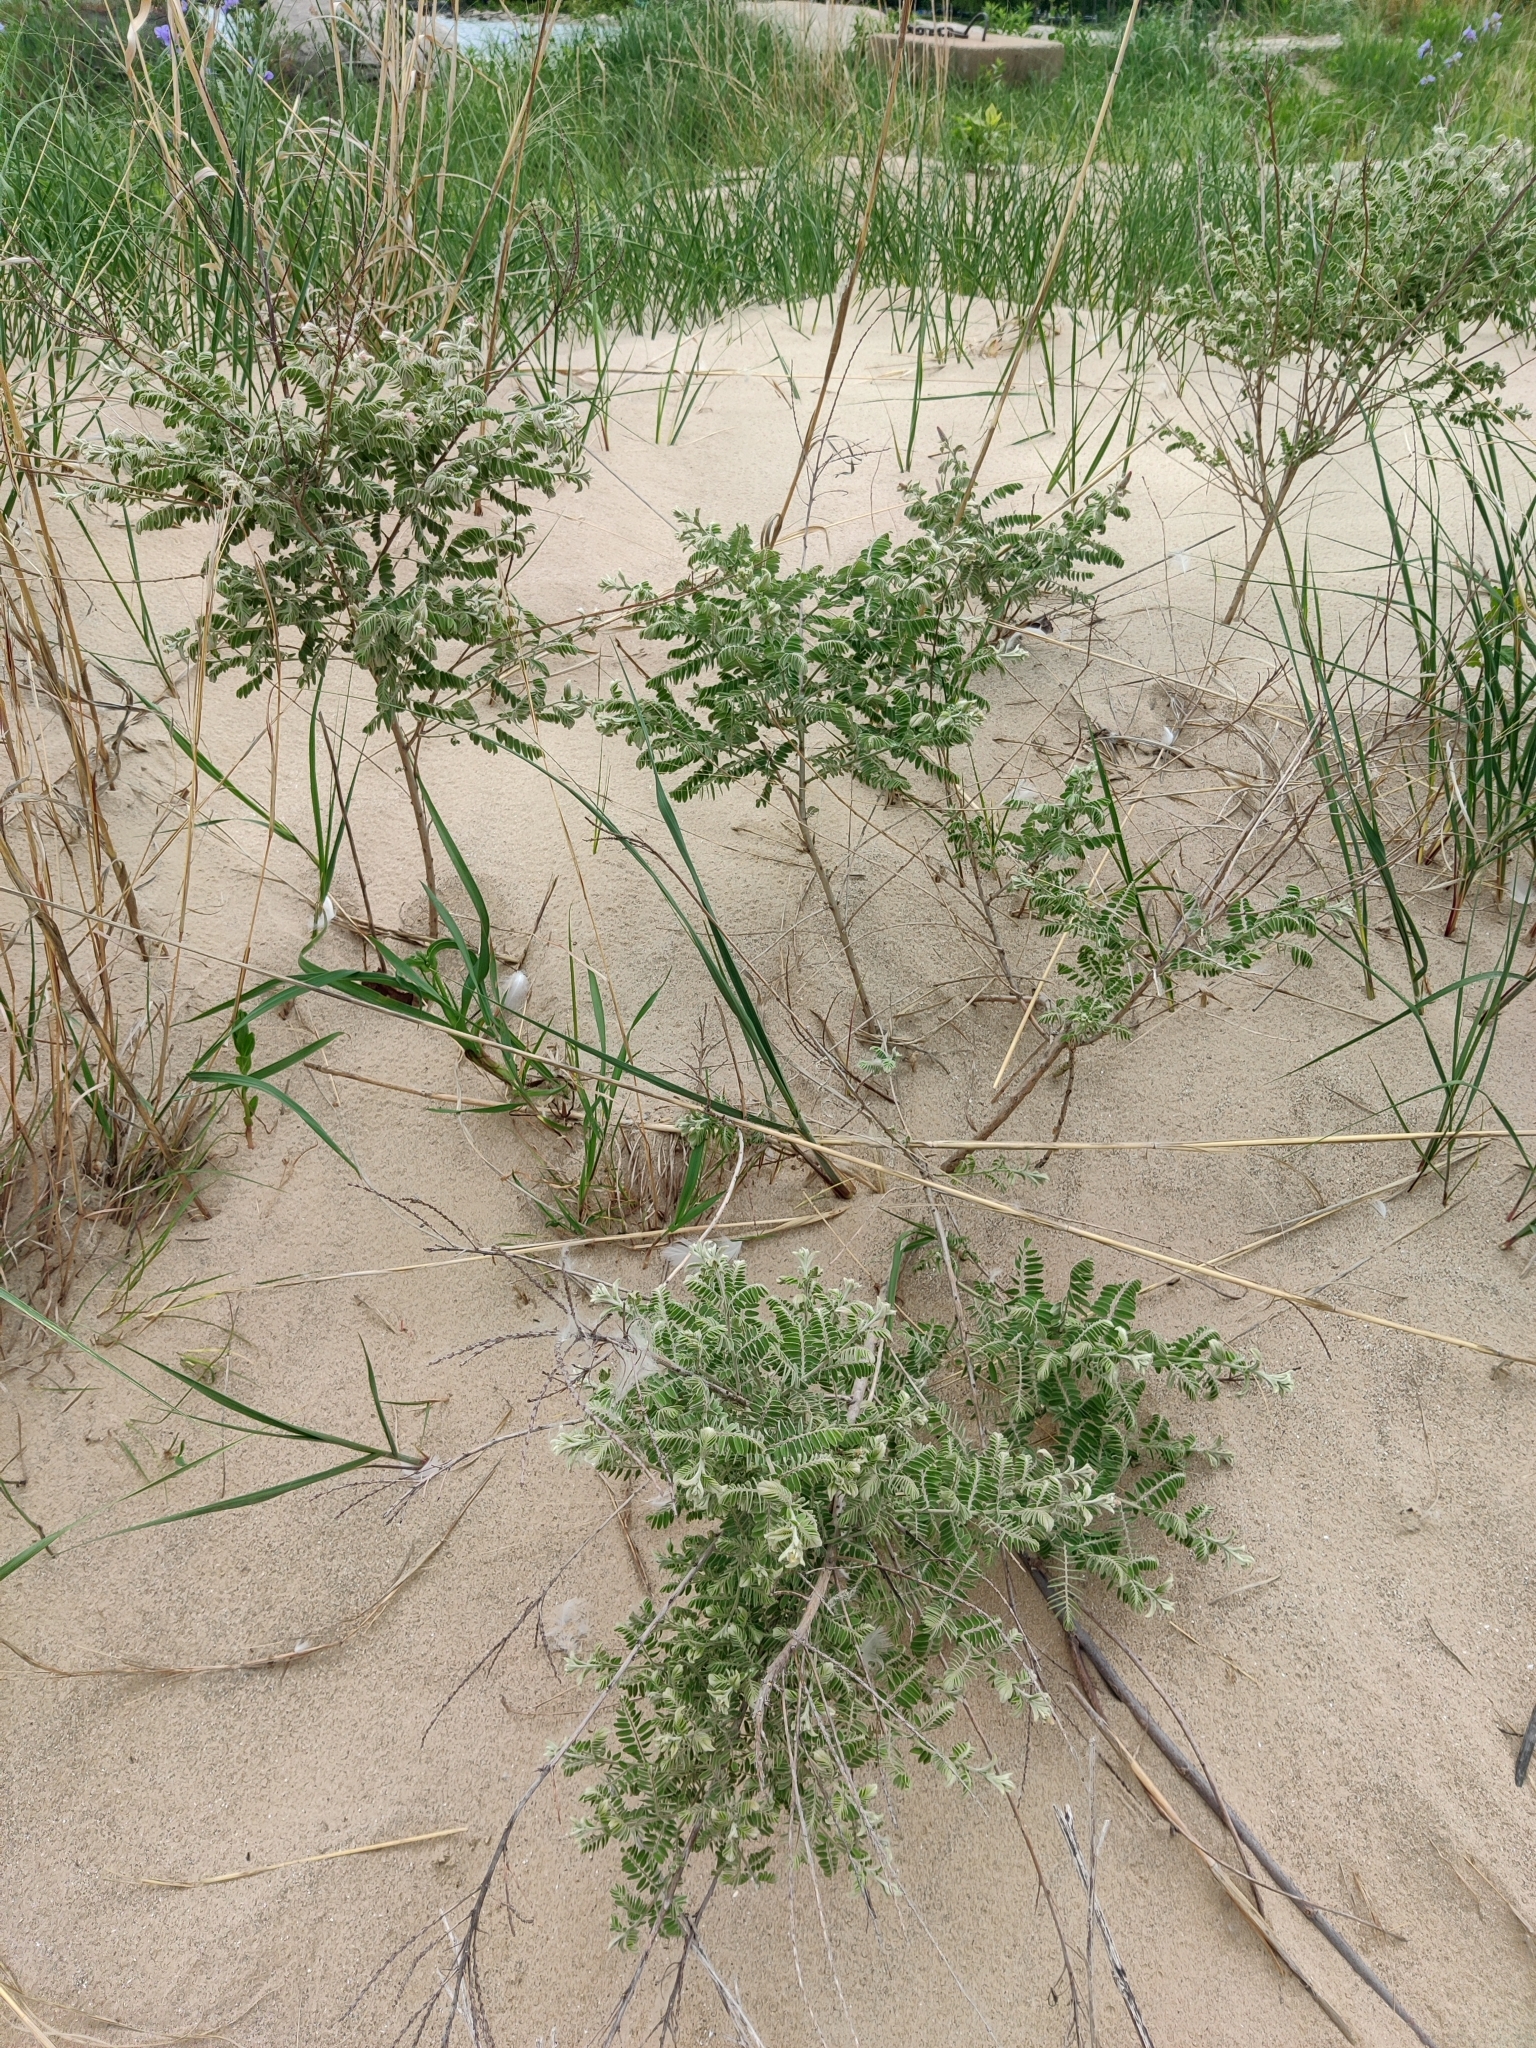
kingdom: Plantae
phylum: Tracheophyta
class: Magnoliopsida
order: Fabales
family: Fabaceae
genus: Amorpha
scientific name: Amorpha canescens
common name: Leadplant
